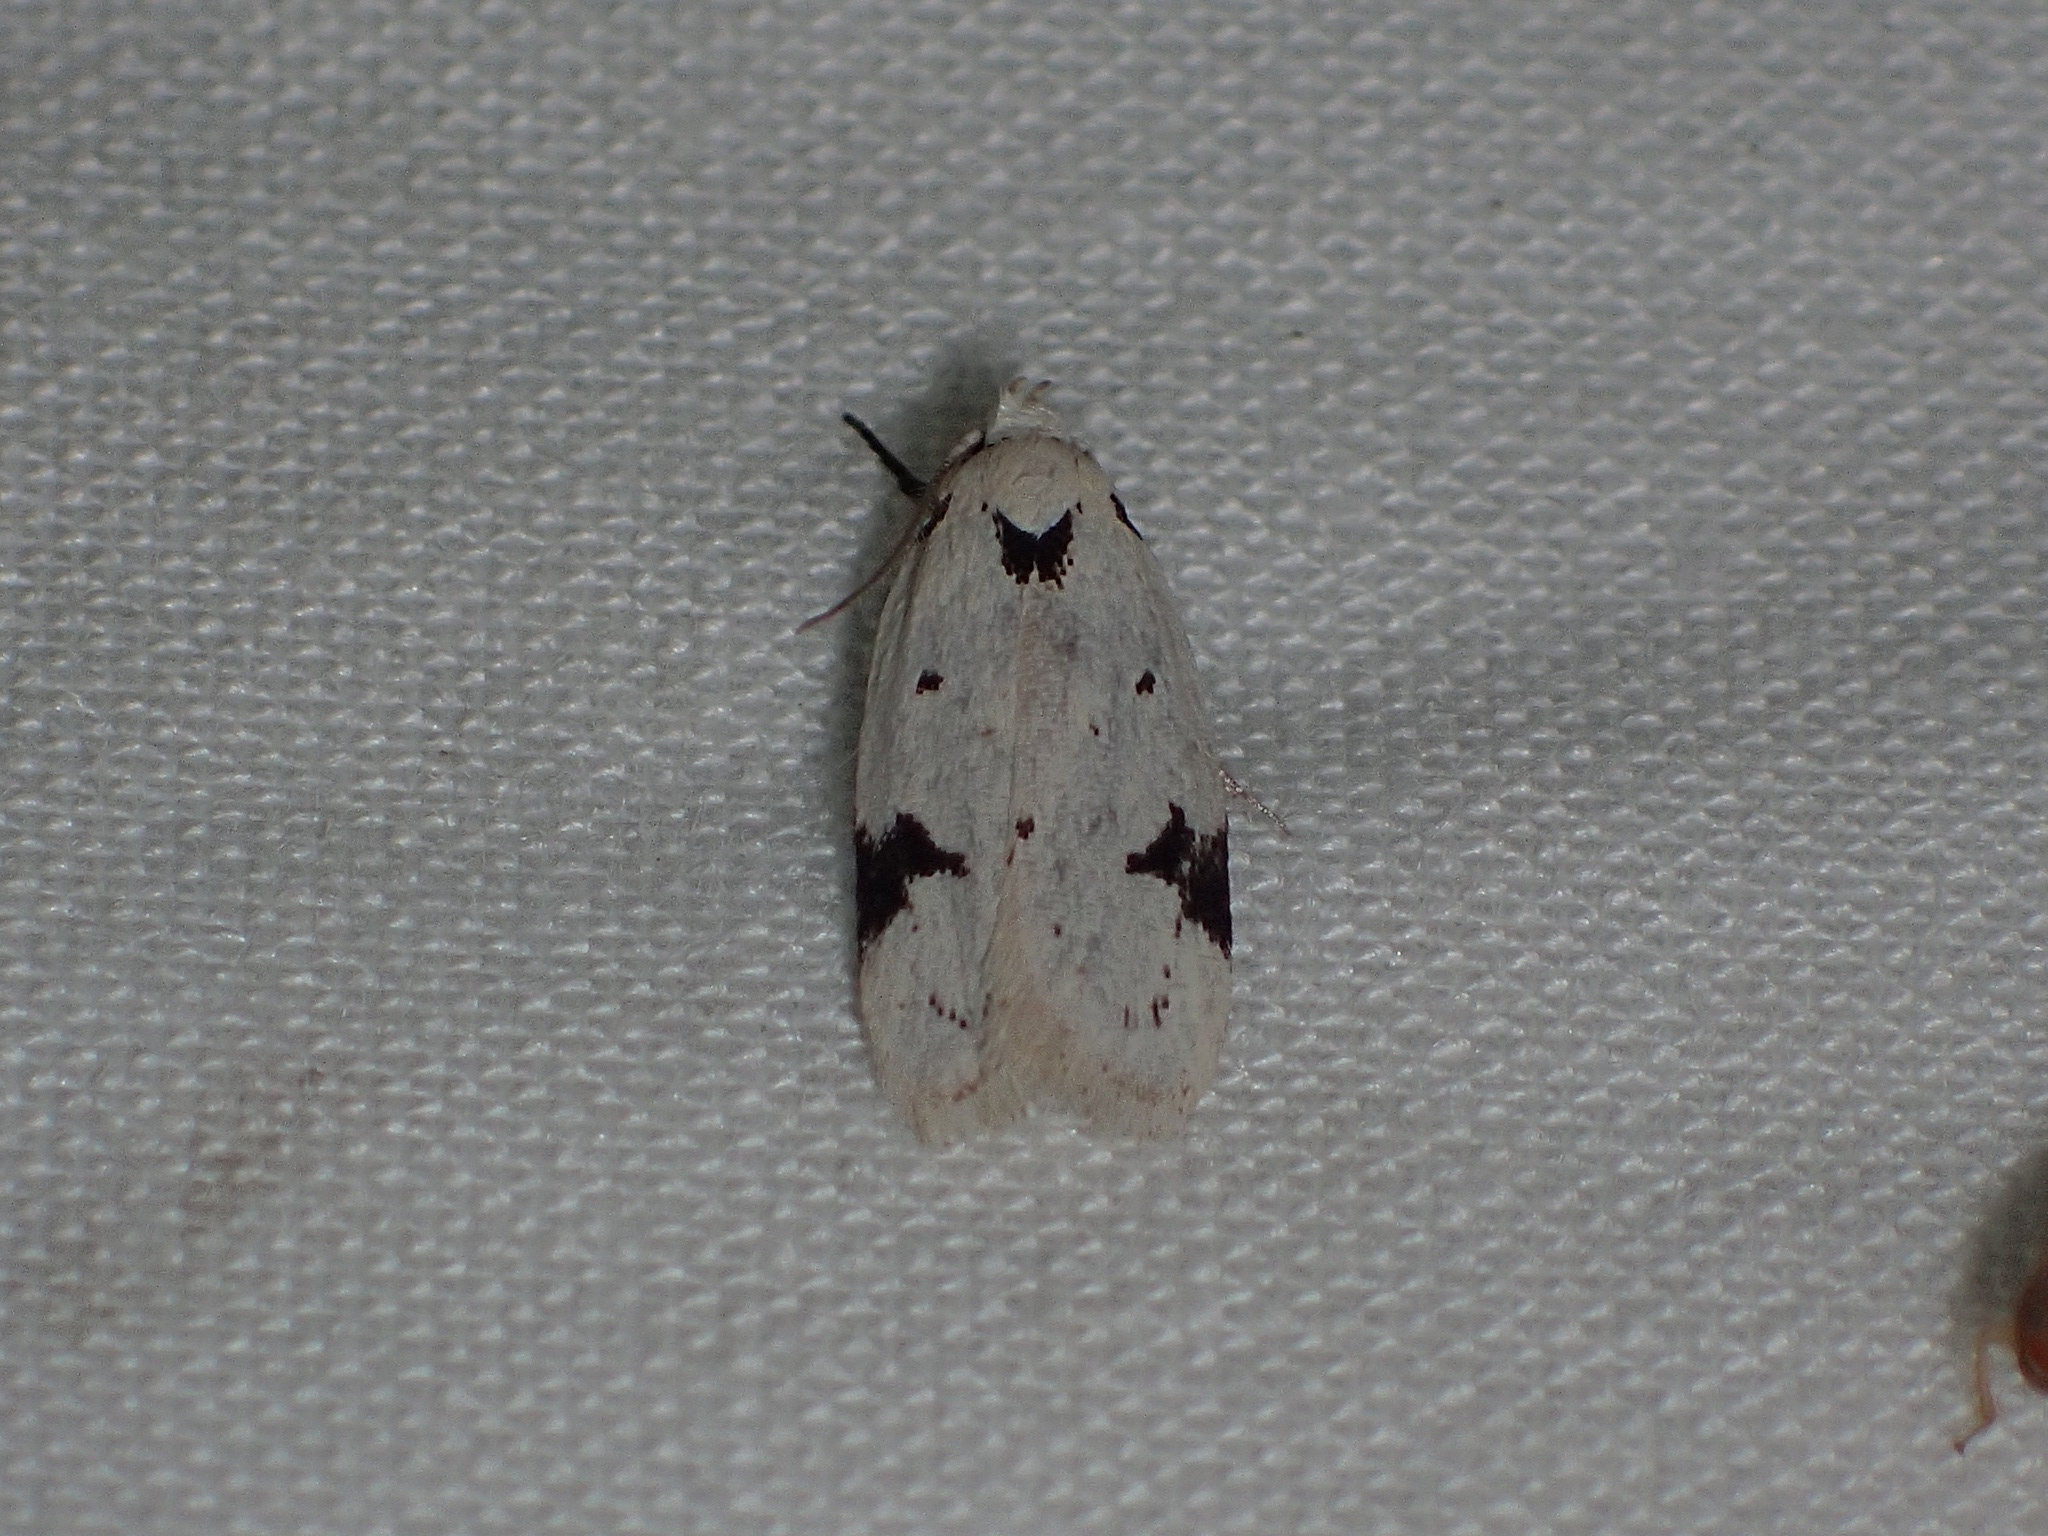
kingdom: Animalia
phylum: Arthropoda
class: Insecta
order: Lepidoptera
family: Oecophoridae
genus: Inga
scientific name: Inga sparsiciliella
